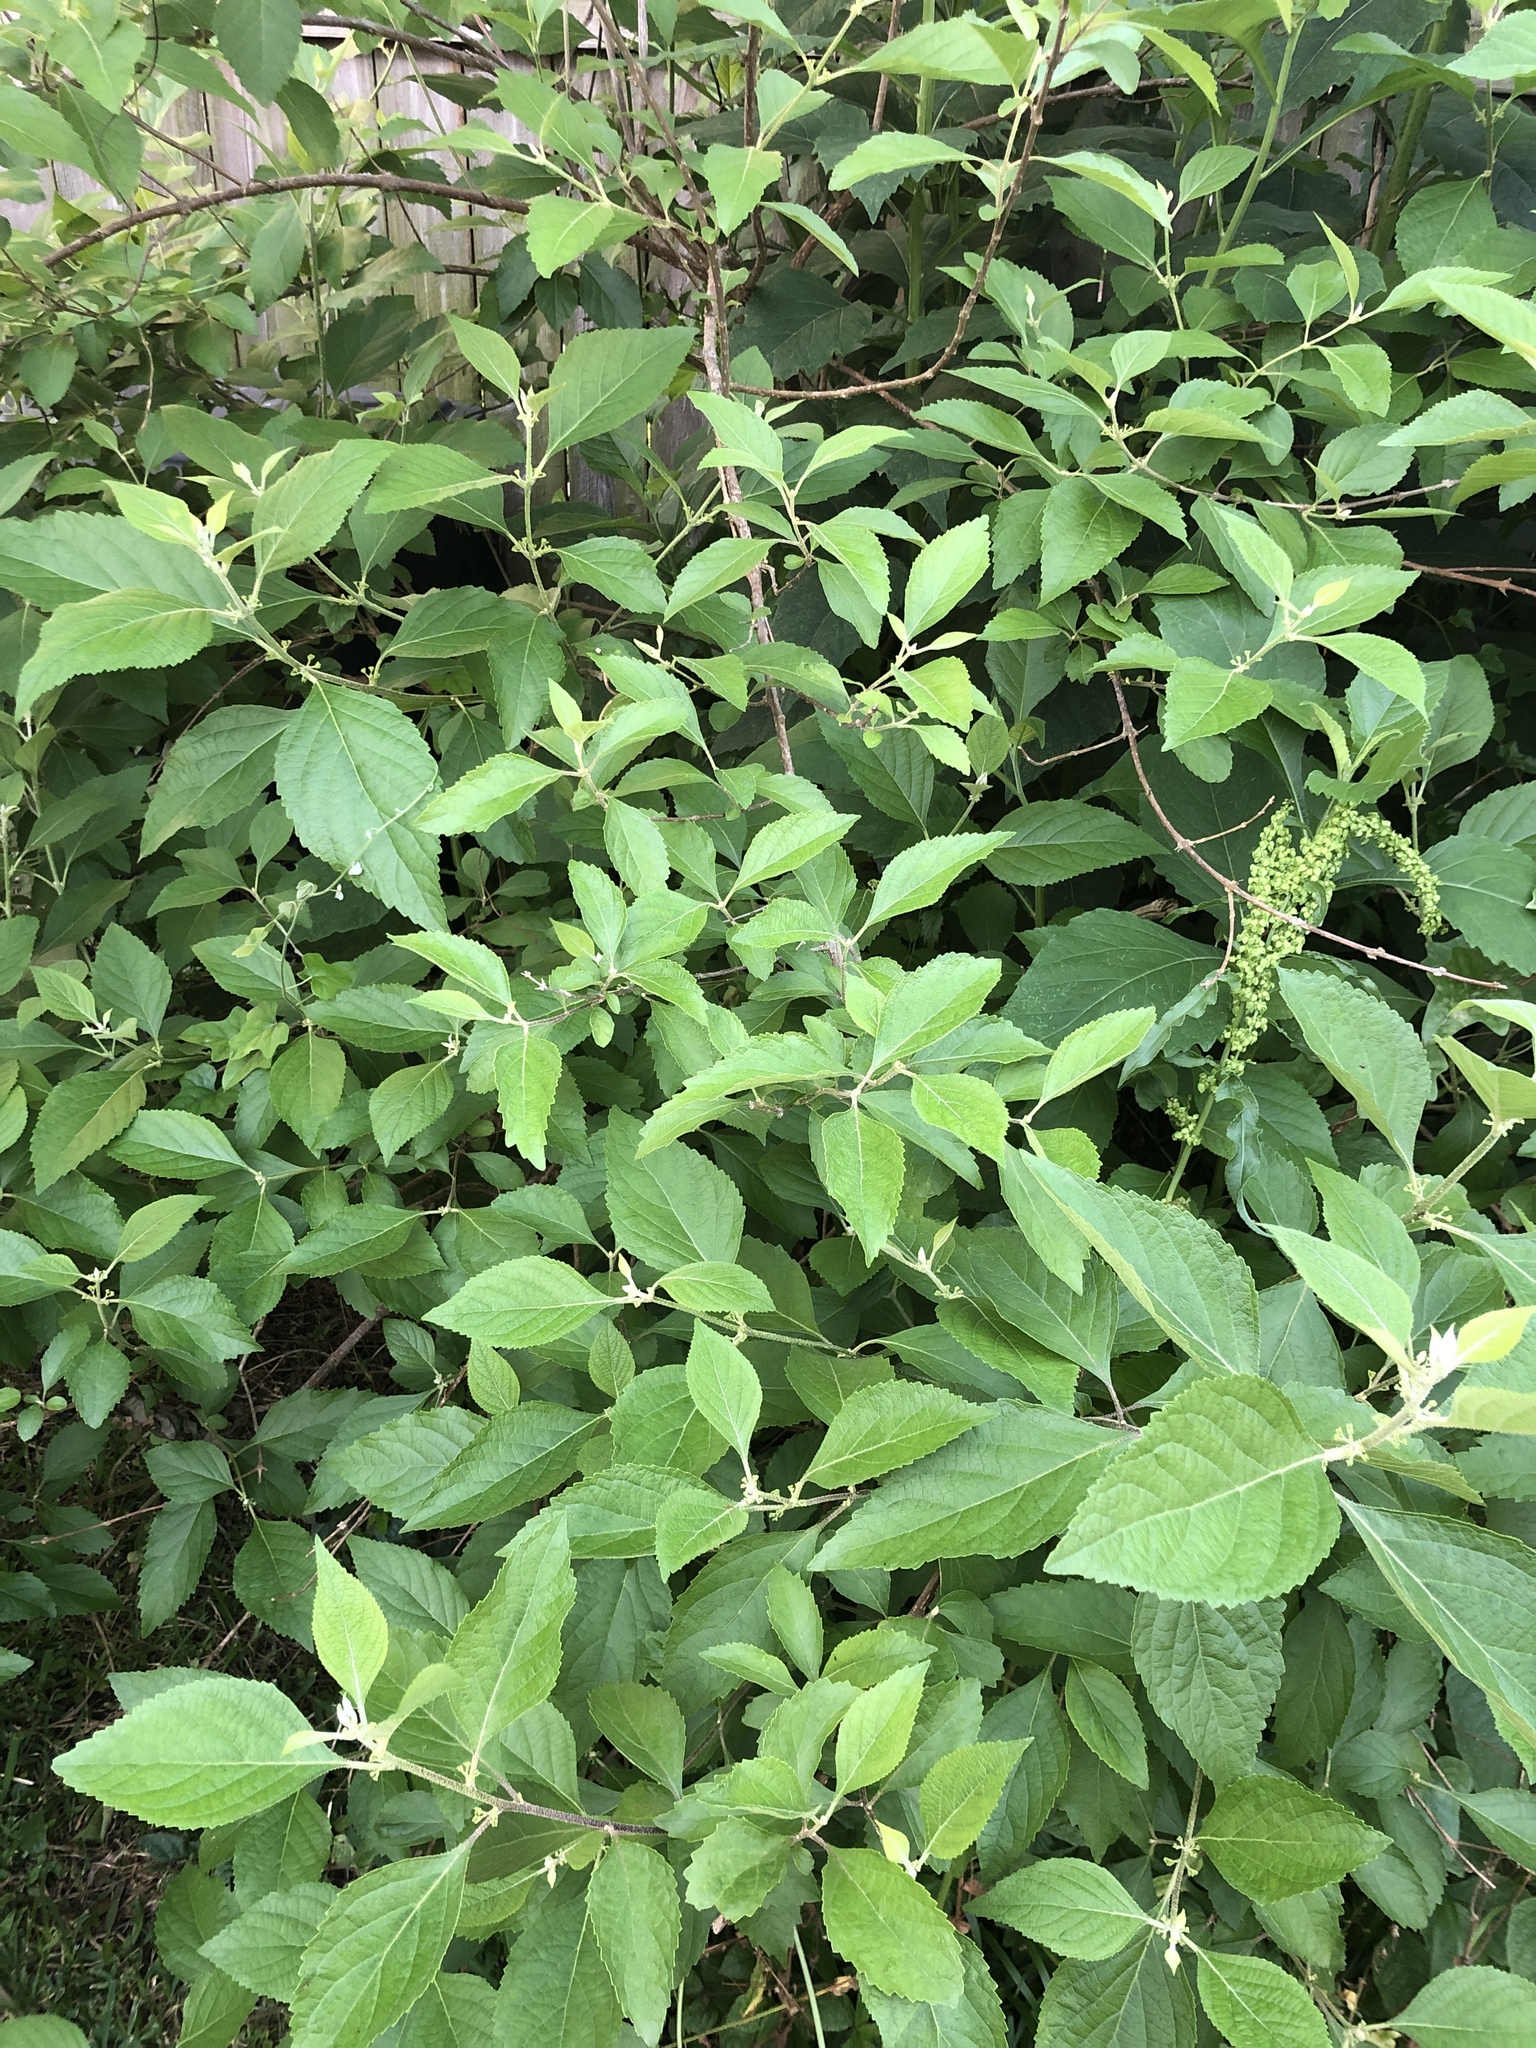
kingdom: Plantae
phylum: Tracheophyta
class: Magnoliopsida
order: Lamiales
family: Lamiaceae
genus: Callicarpa
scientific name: Callicarpa americana
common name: American beautyberry
